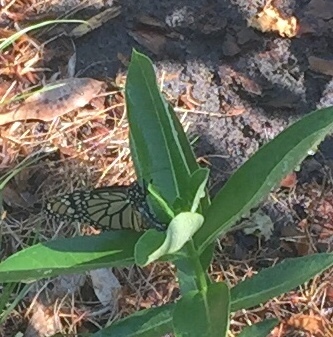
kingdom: Animalia
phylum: Arthropoda
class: Insecta
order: Lepidoptera
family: Nymphalidae
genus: Danaus
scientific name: Danaus plexippus
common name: Monarch
